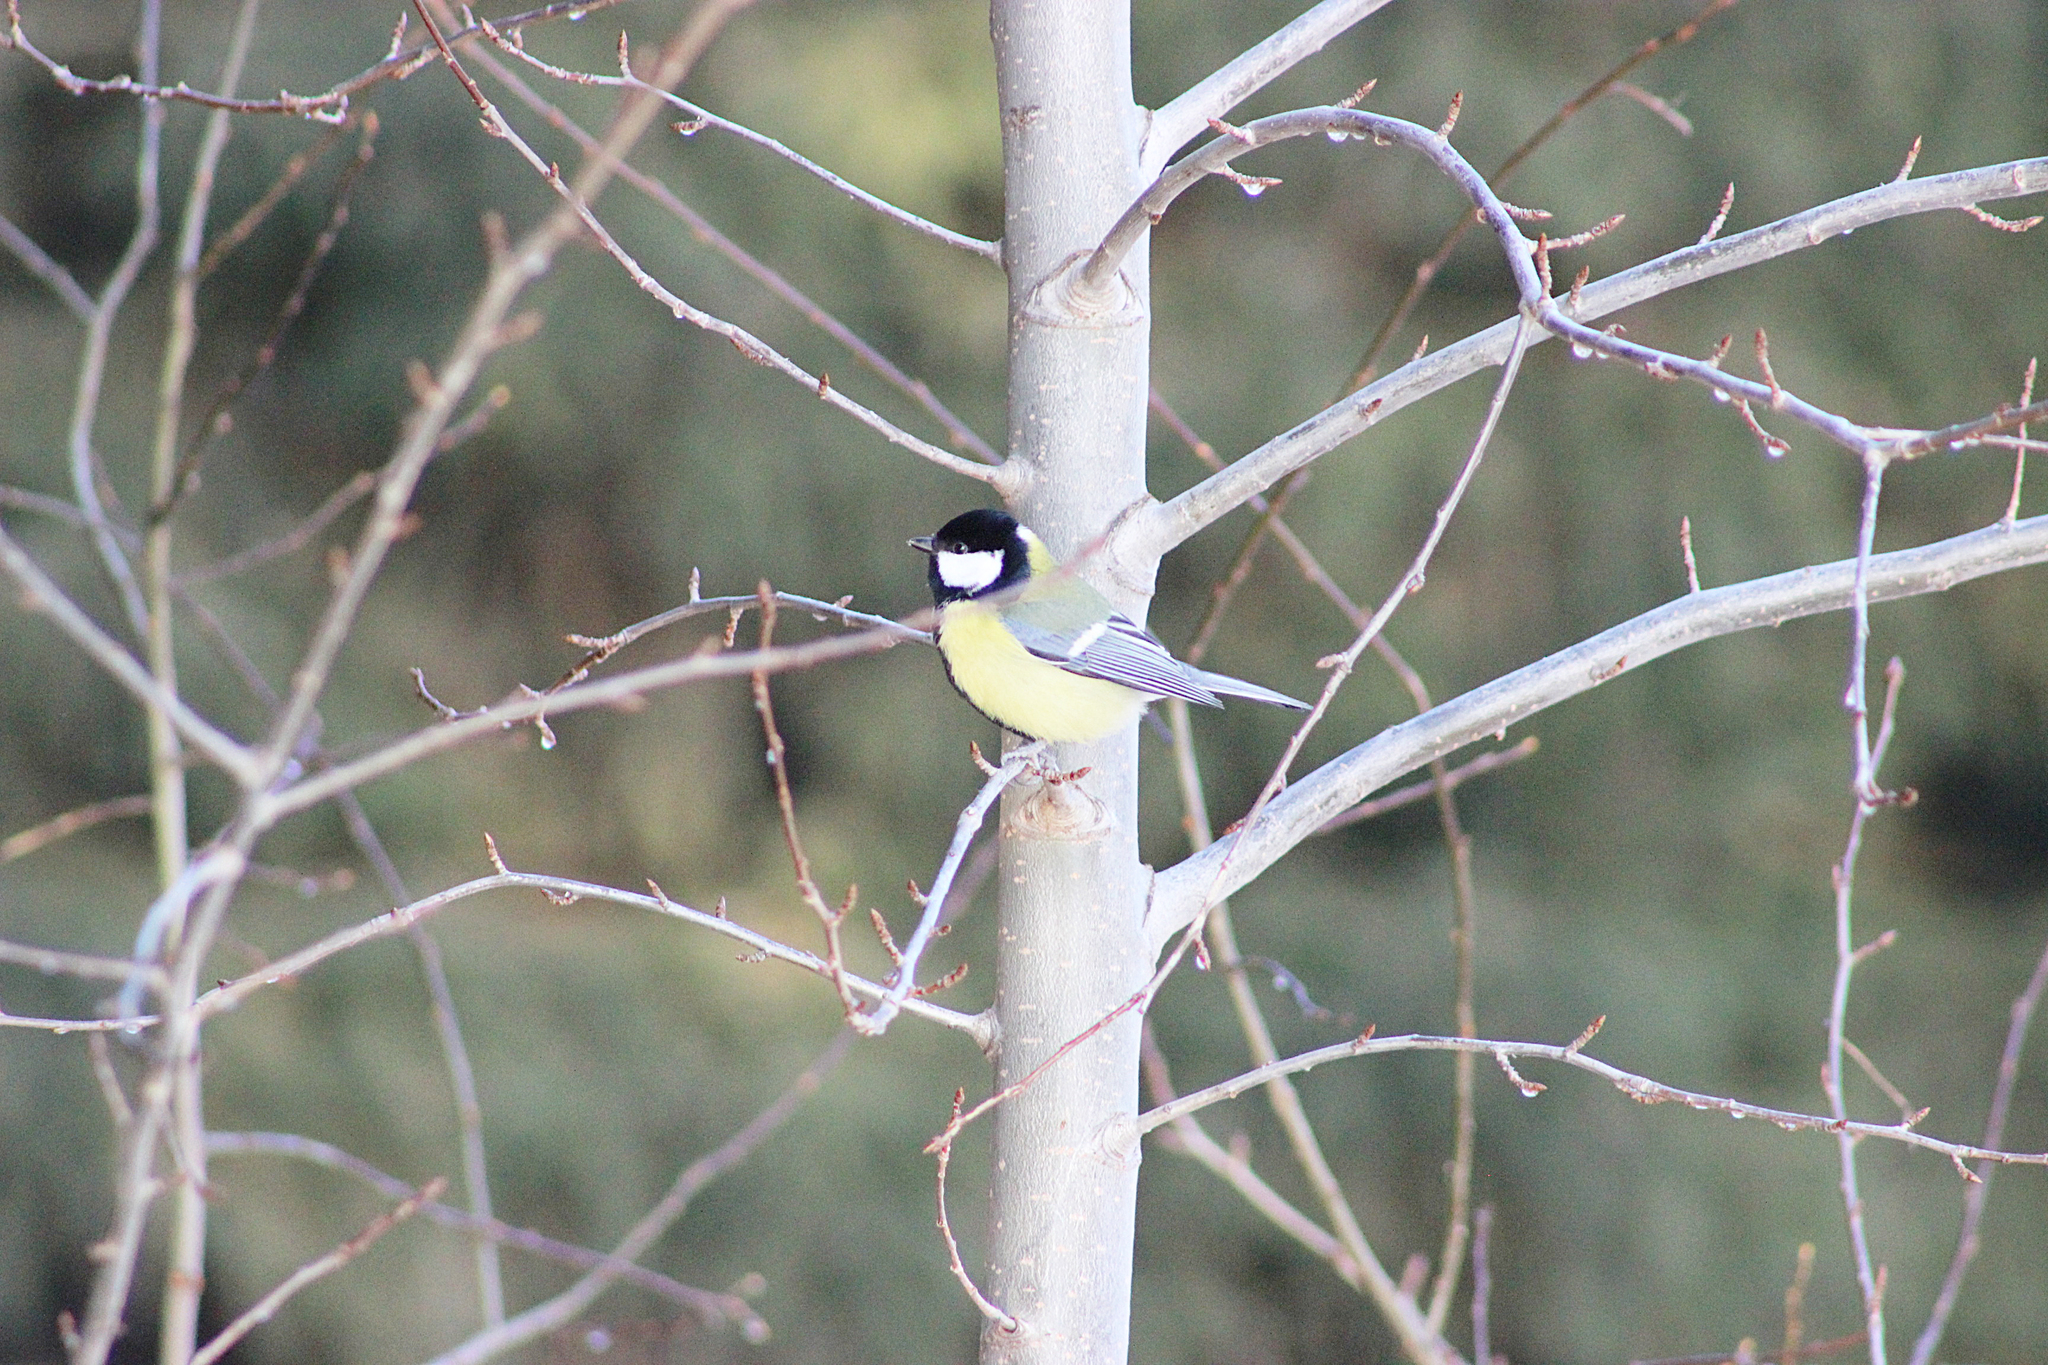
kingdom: Animalia
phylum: Chordata
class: Aves
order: Passeriformes
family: Paridae
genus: Parus
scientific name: Parus major
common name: Great tit
